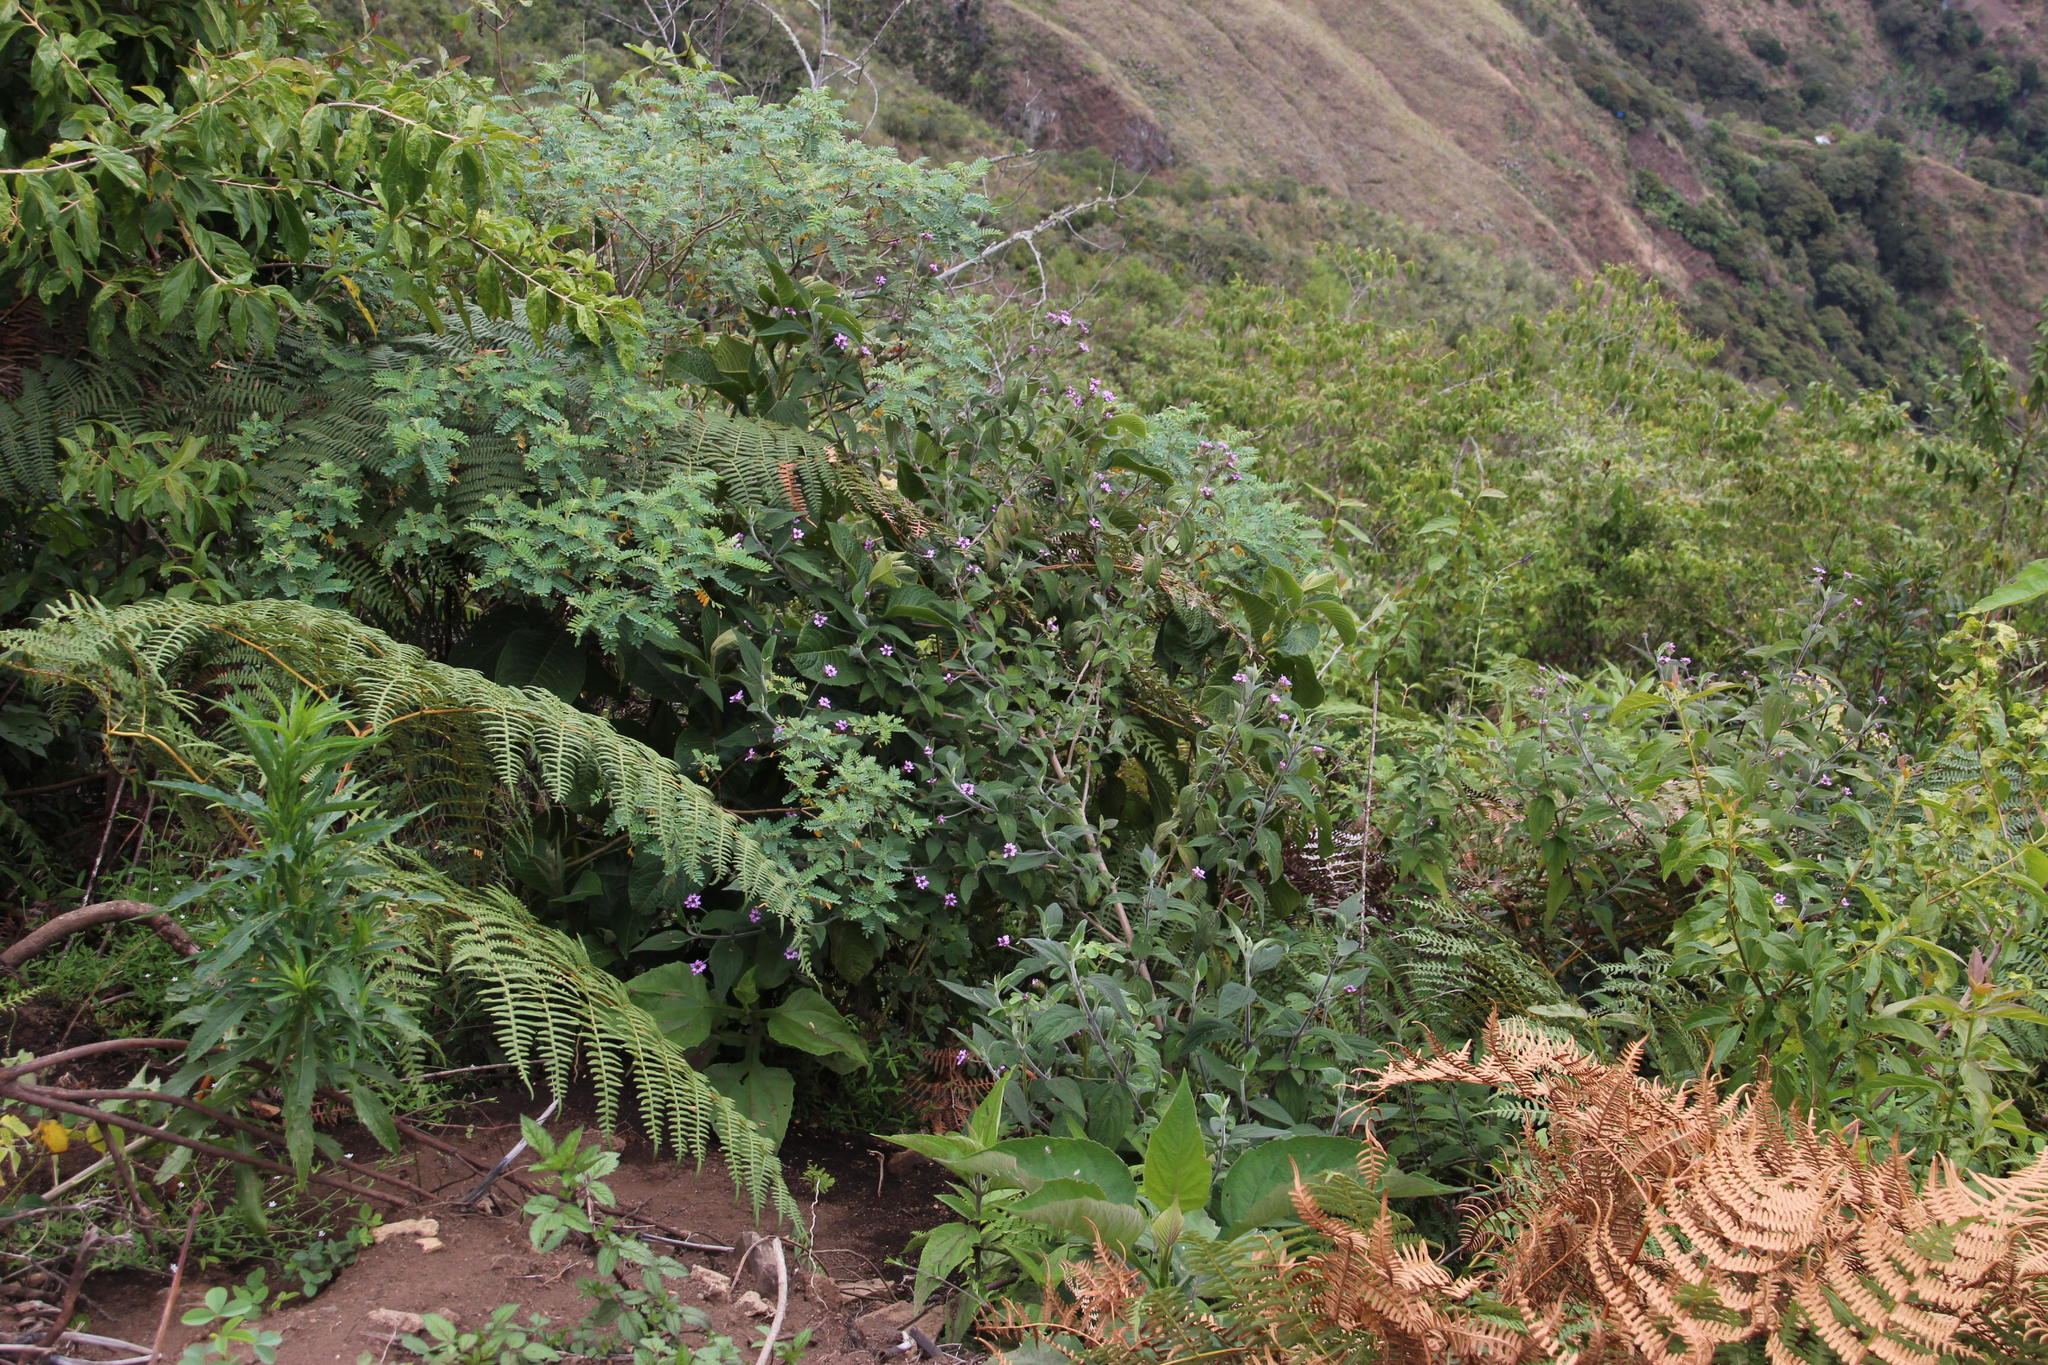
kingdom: Plantae
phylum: Tracheophyta
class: Magnoliopsida
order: Lamiales
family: Verbenaceae
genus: Lantana
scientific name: Lantana viscosa
